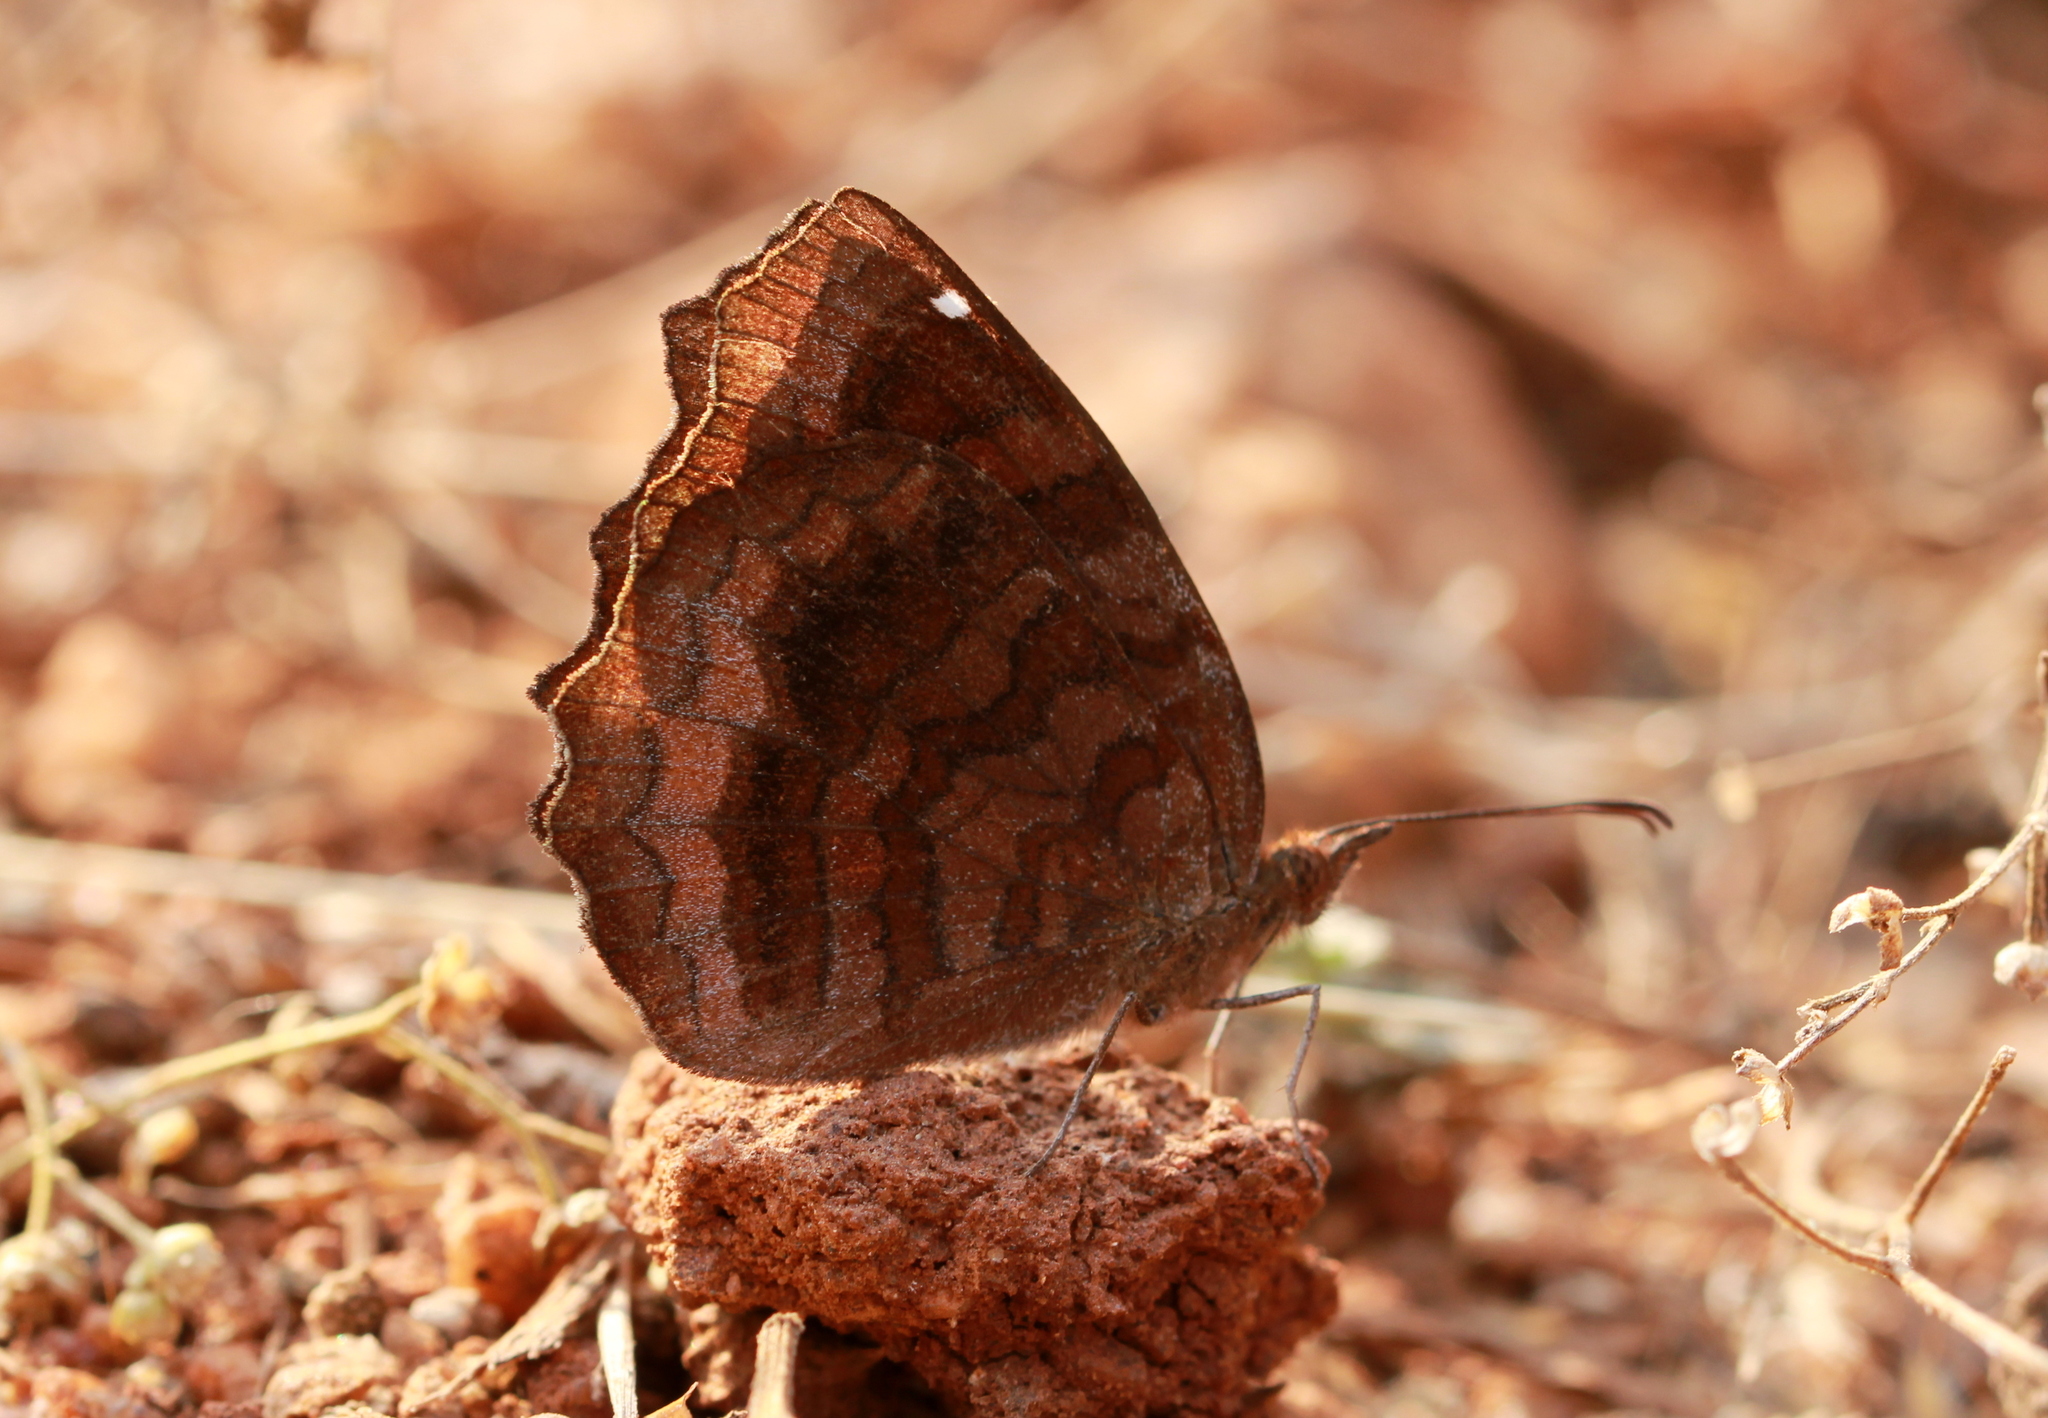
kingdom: Animalia
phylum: Arthropoda
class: Insecta
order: Lepidoptera
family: Nymphalidae
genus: Ariadne
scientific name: Ariadne ariadne
